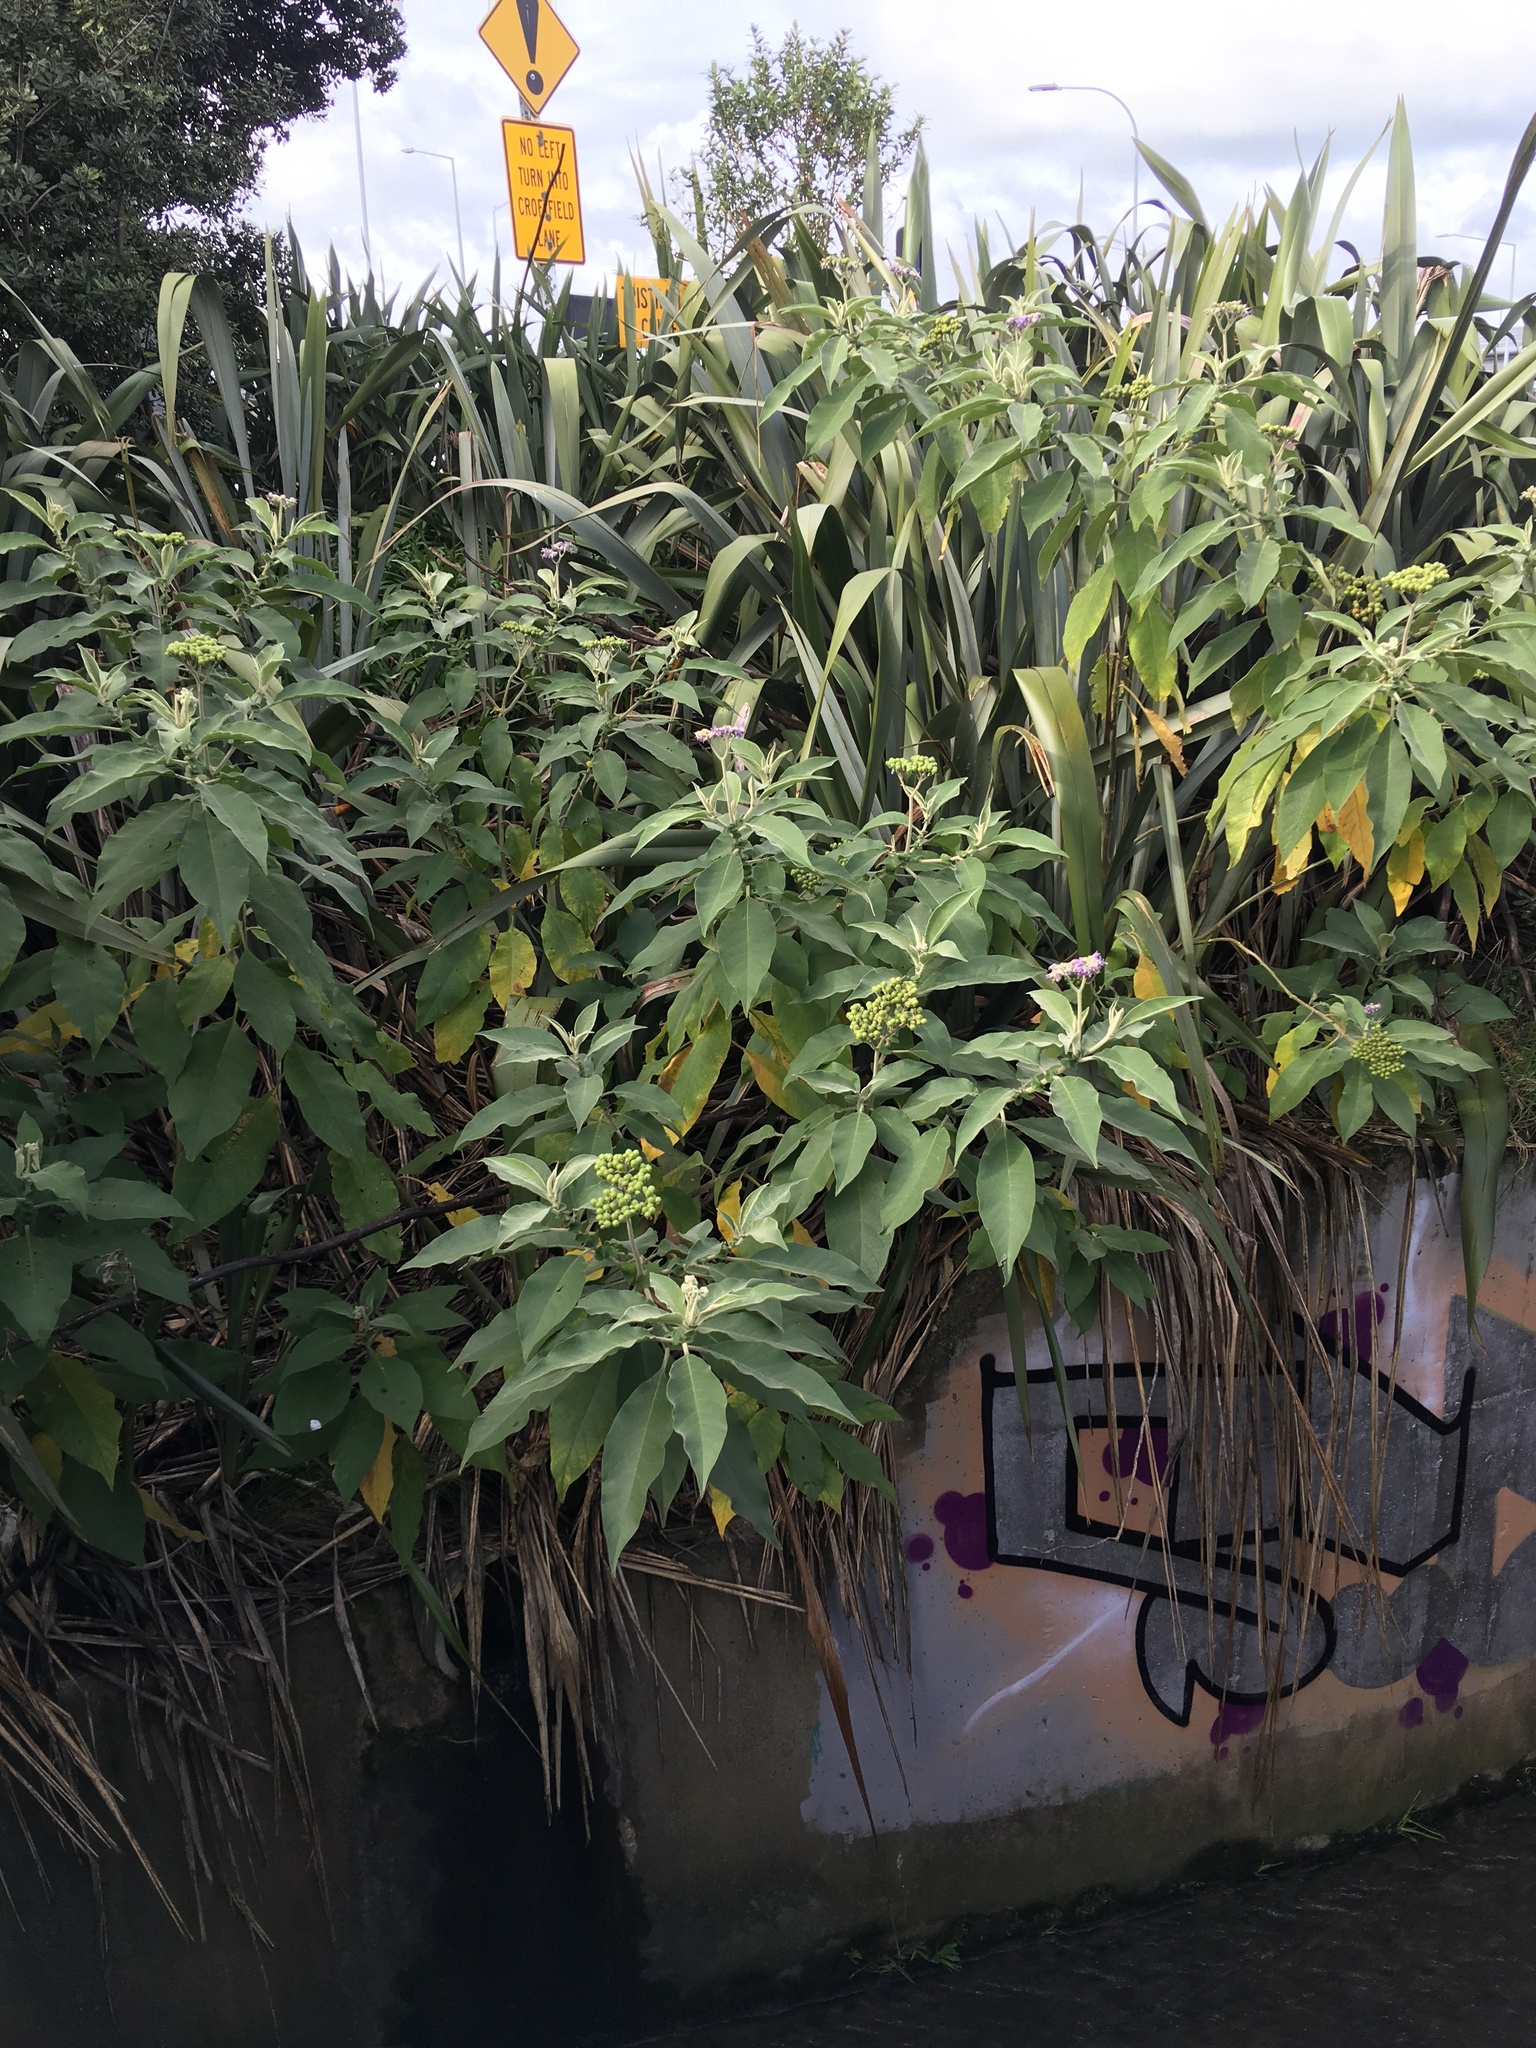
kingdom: Plantae
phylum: Tracheophyta
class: Magnoliopsida
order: Solanales
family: Solanaceae
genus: Solanum
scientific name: Solanum mauritianum
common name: Earleaf nightshade
